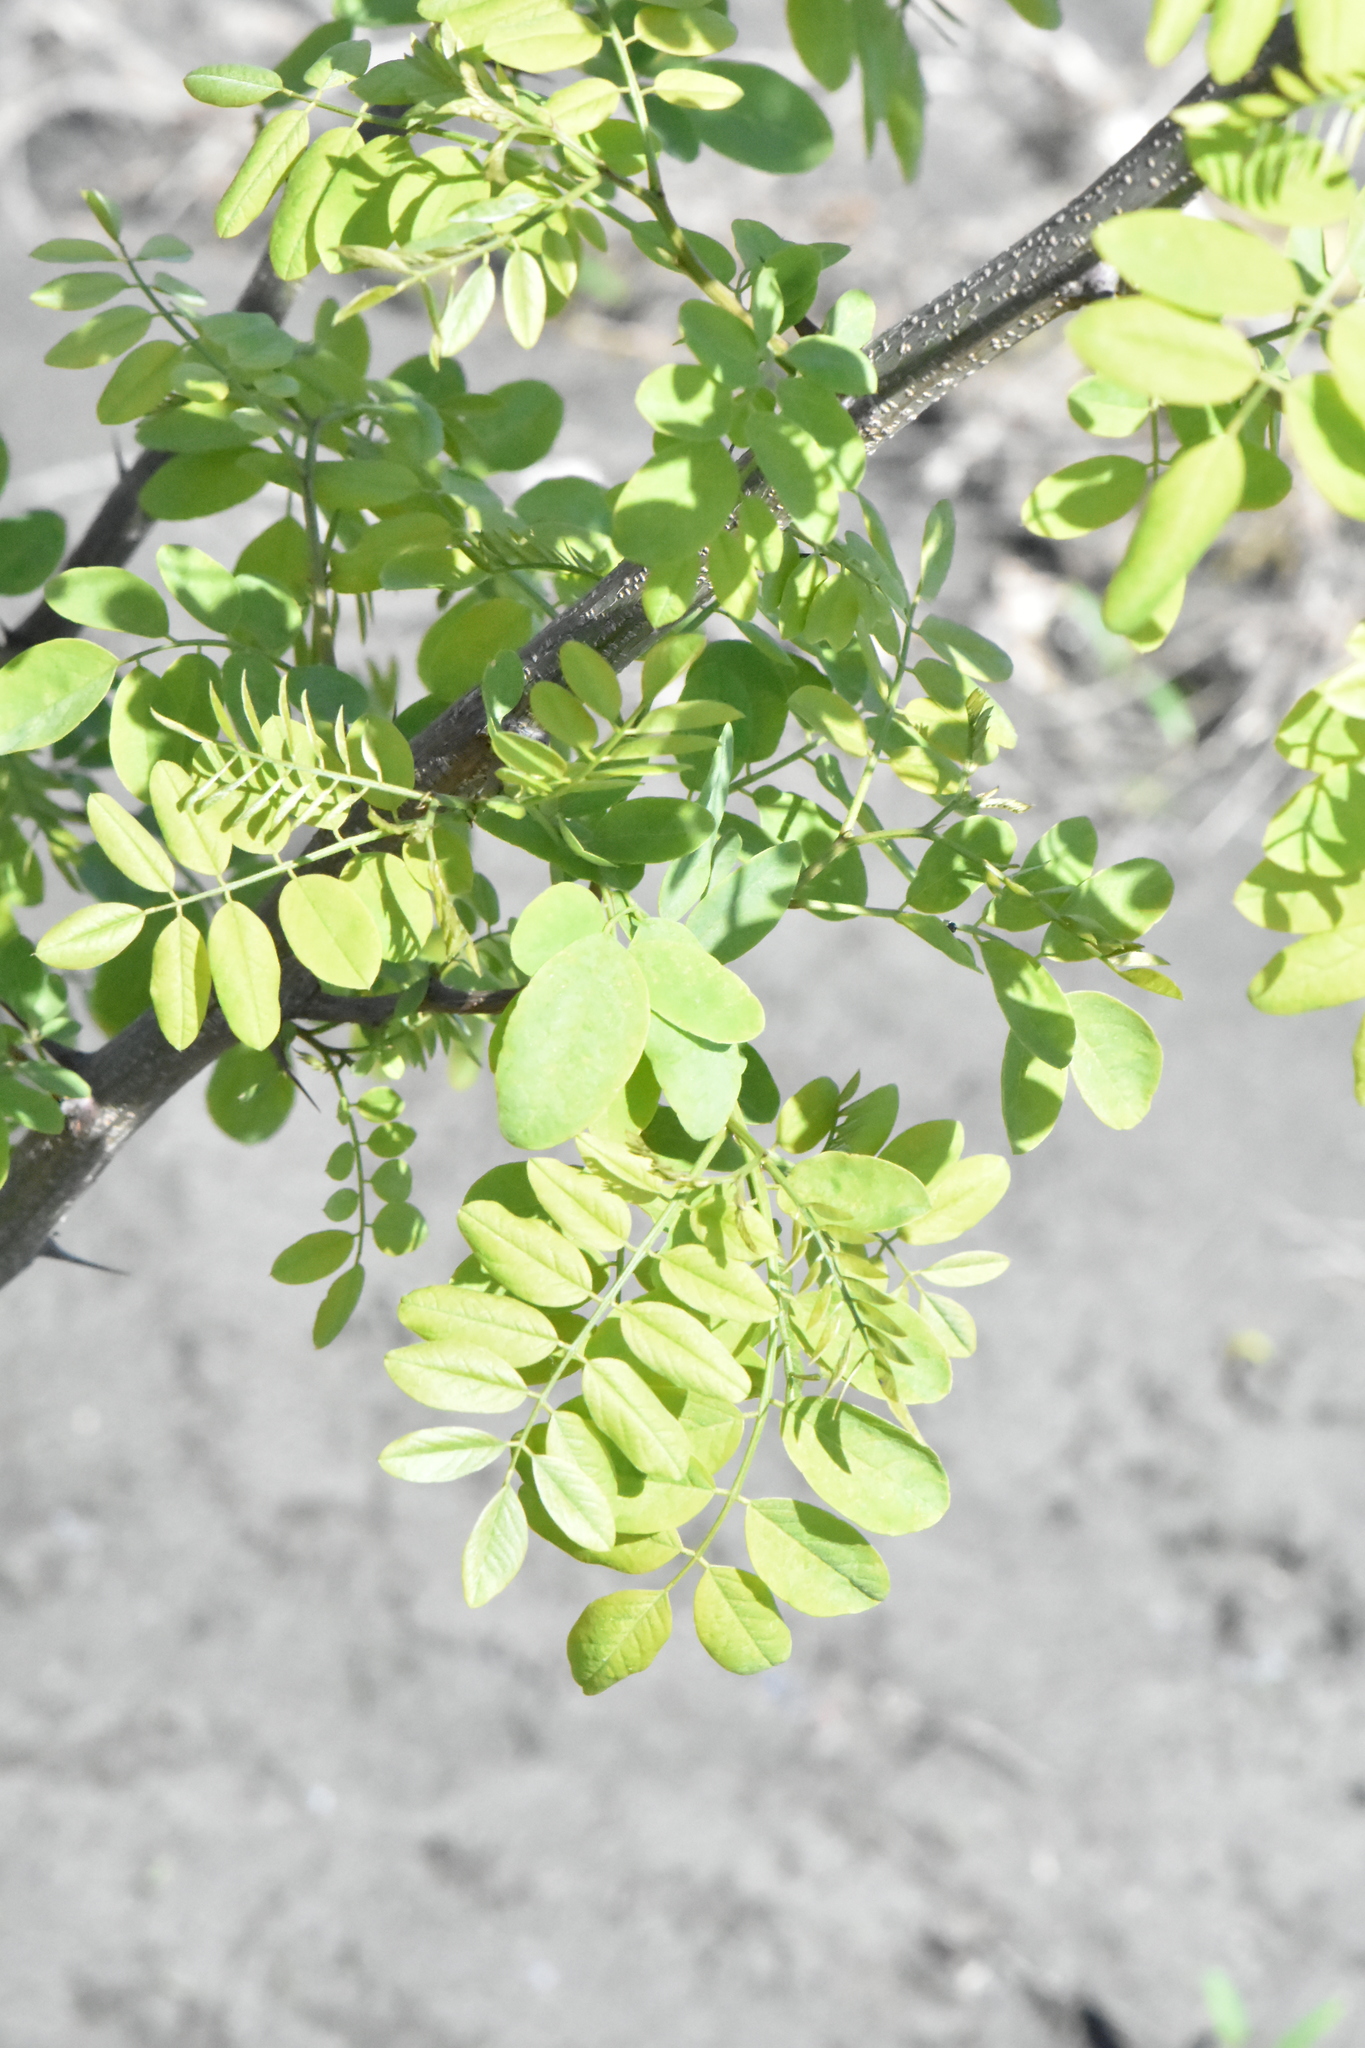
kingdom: Plantae
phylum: Tracheophyta
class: Magnoliopsida
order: Fabales
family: Fabaceae
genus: Robinia
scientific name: Robinia pseudoacacia
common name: Black locust
